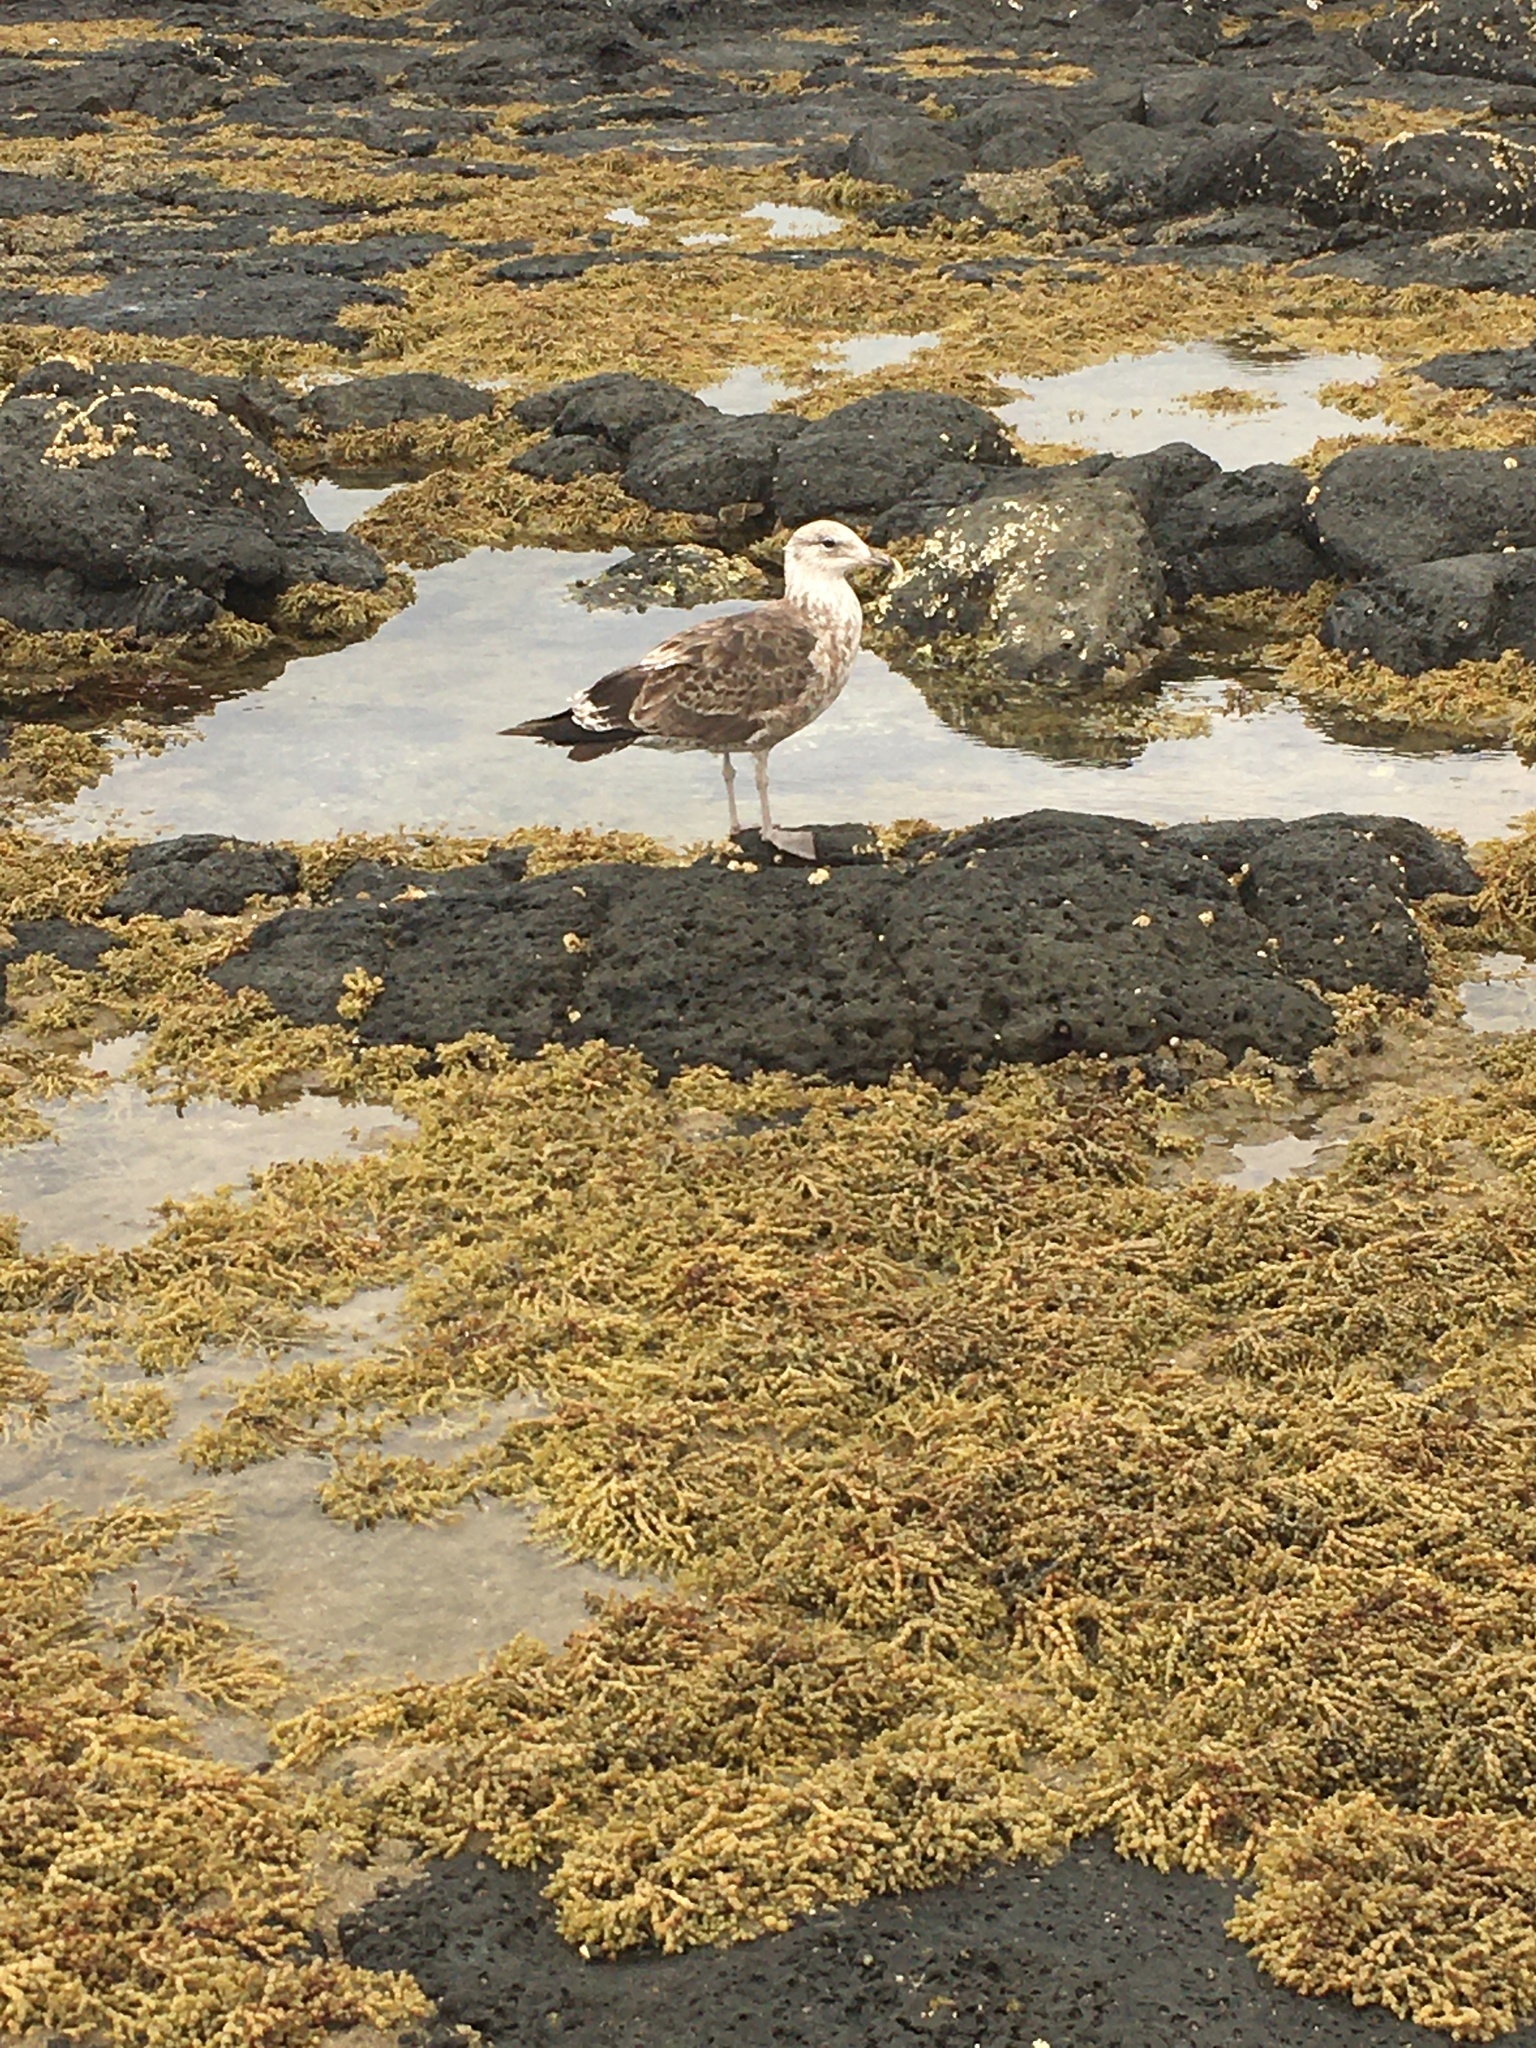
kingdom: Animalia
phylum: Chordata
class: Aves
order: Charadriiformes
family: Laridae
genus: Larus
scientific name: Larus dominicanus
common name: Kelp gull
